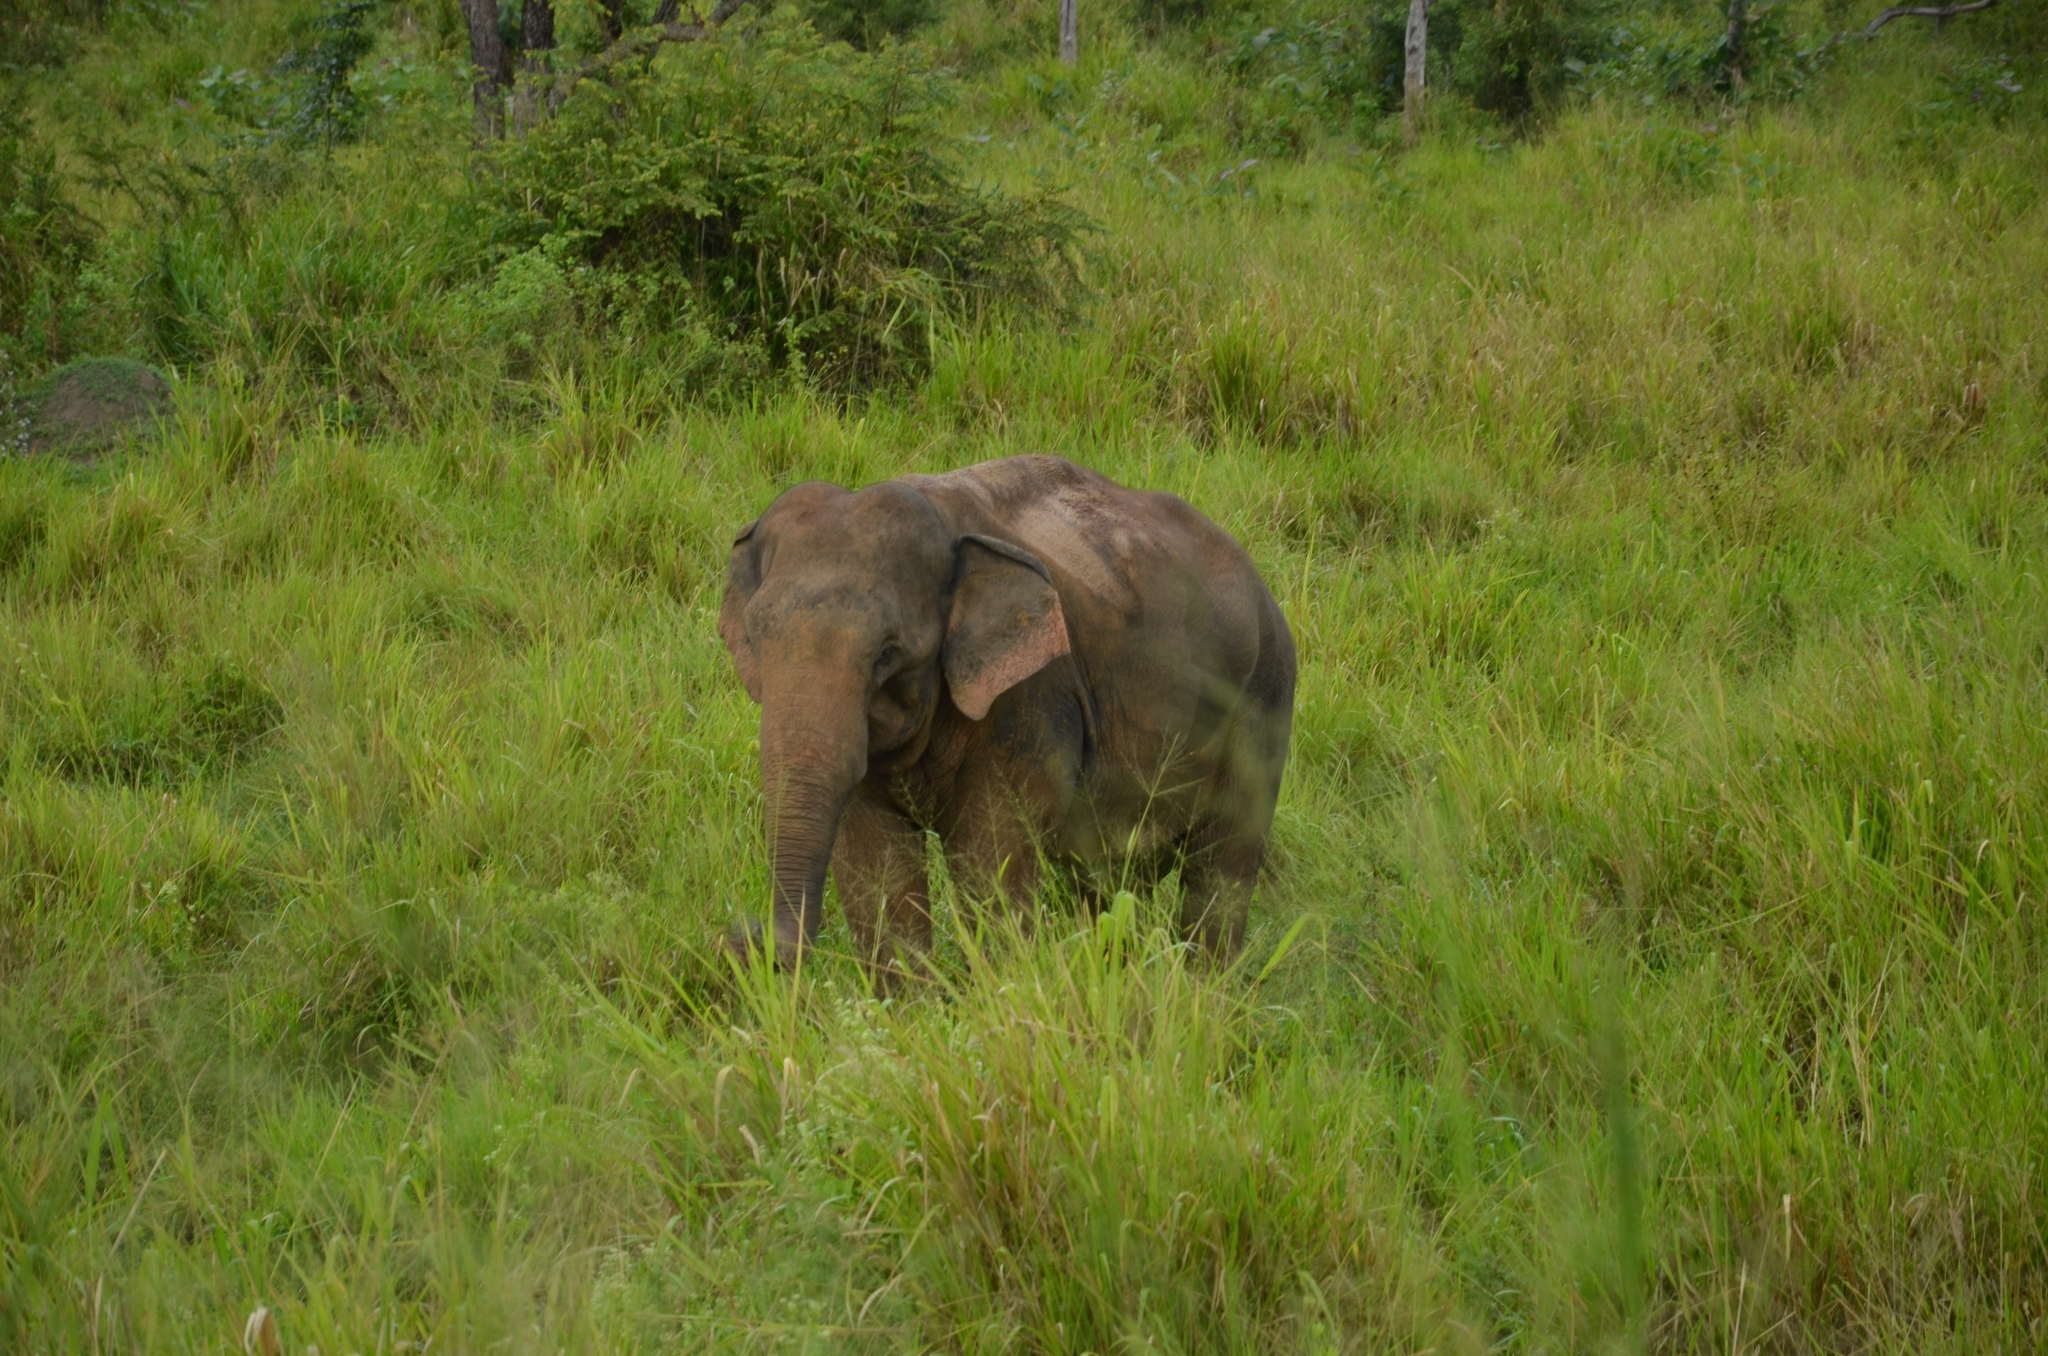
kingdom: Animalia
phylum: Chordata
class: Mammalia
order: Proboscidea
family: Elephantidae
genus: Elephas
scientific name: Elephas maximus
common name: Asian elephant
